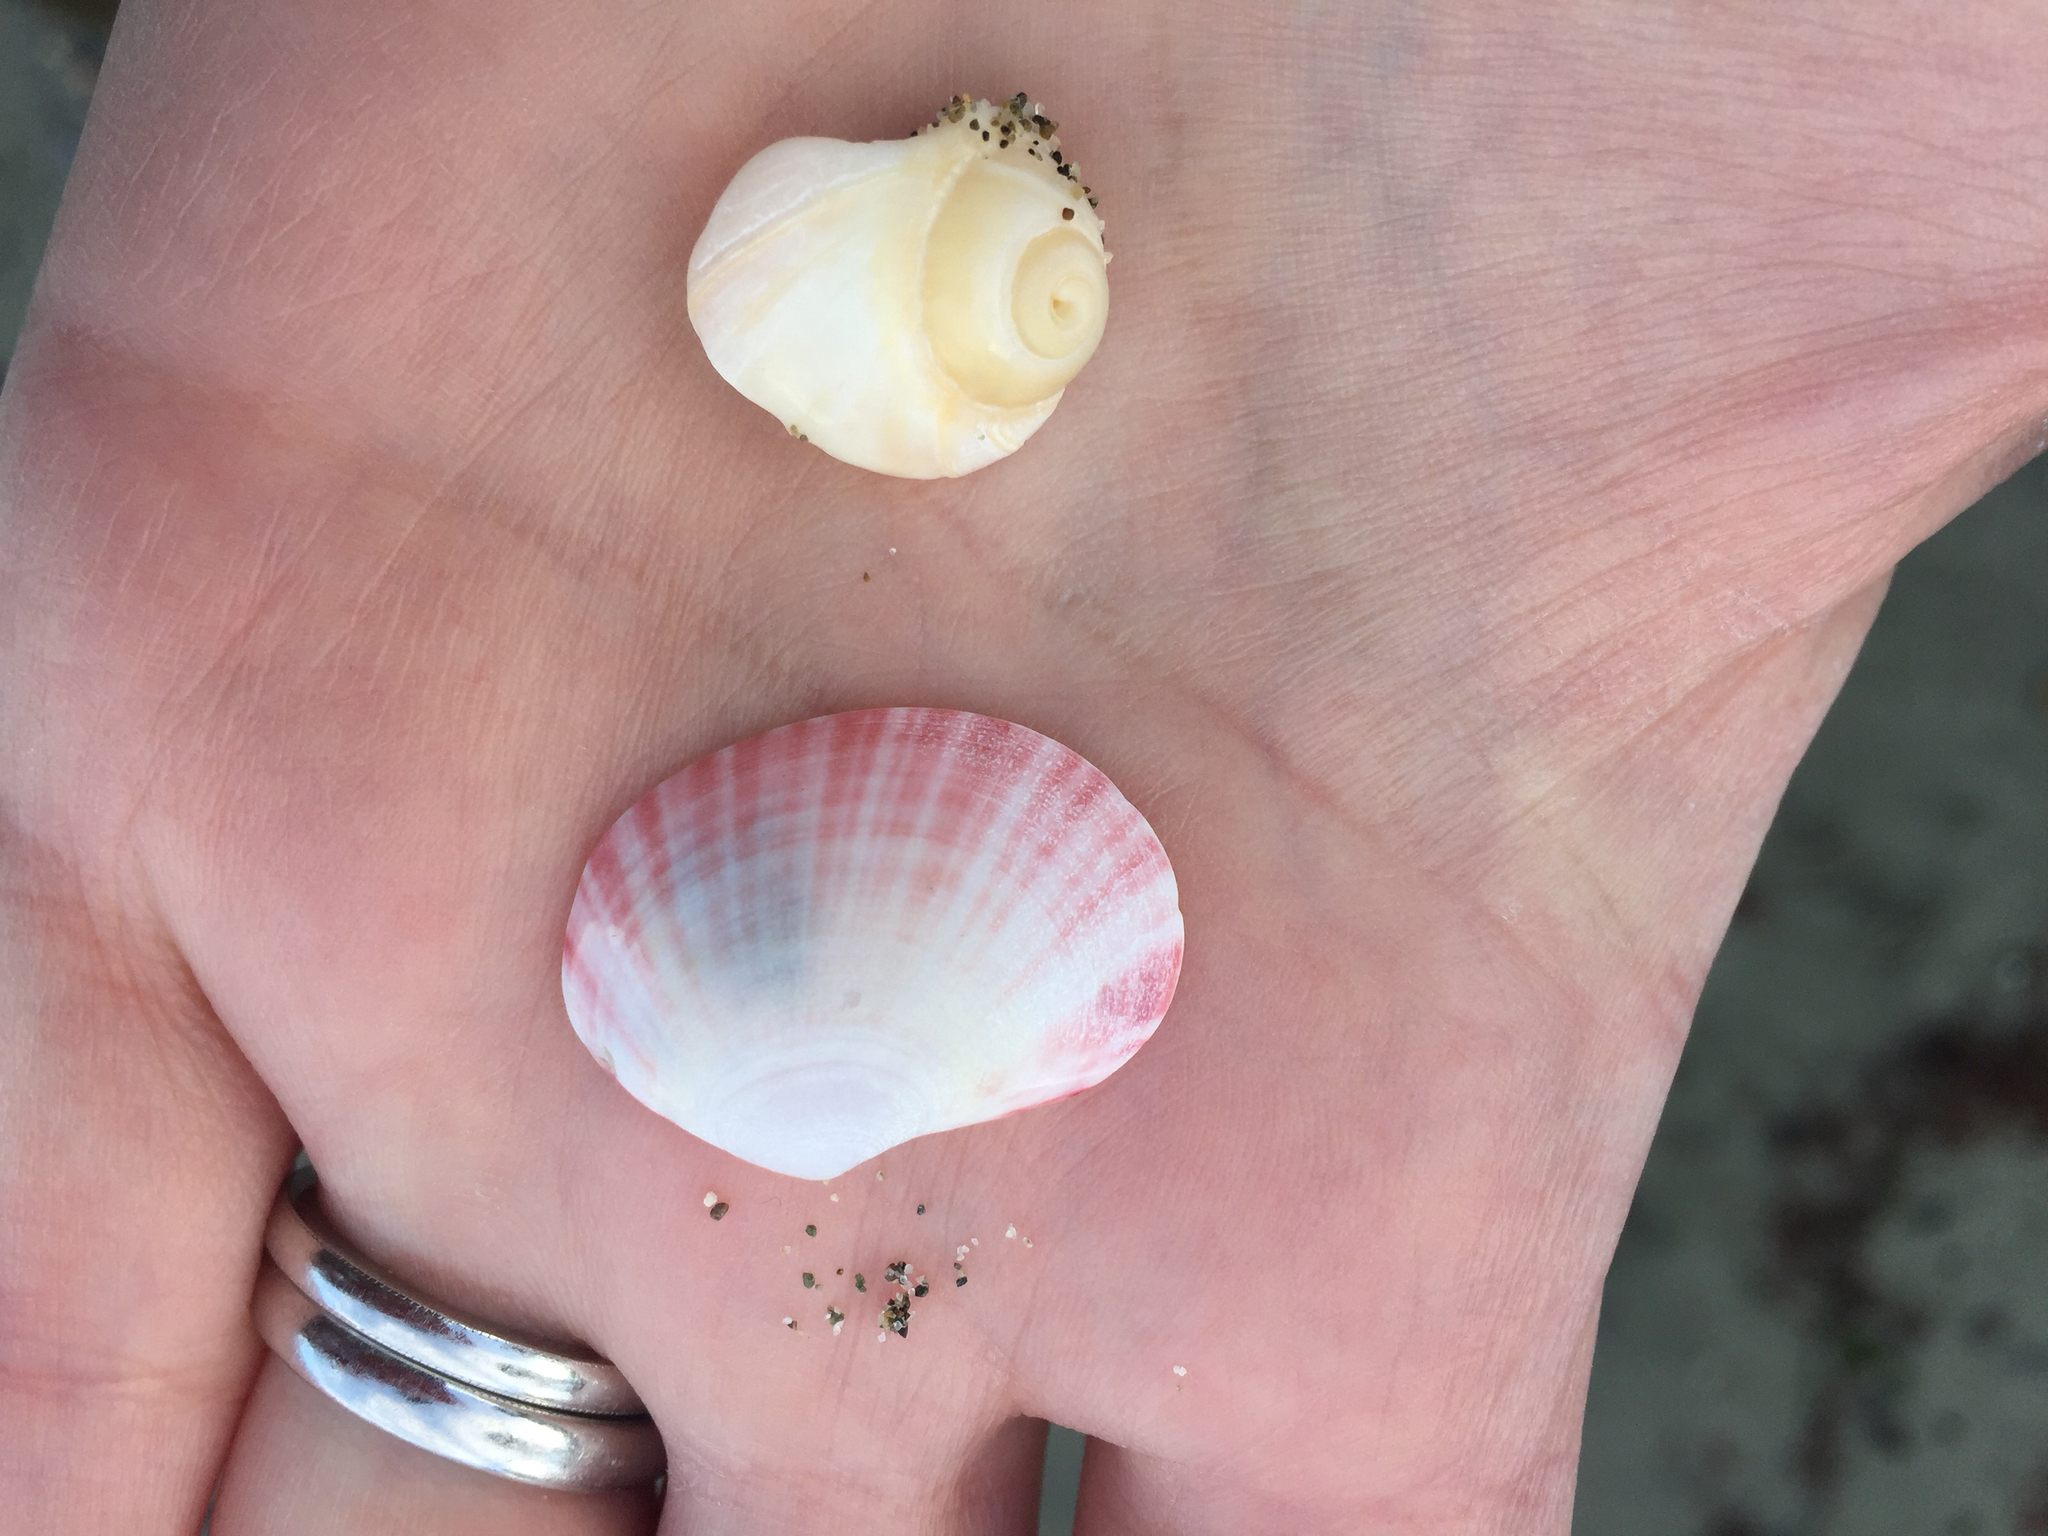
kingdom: Animalia
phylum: Mollusca
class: Bivalvia
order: Cardiida
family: Semelidae
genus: Semele
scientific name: Semele rubropicta
